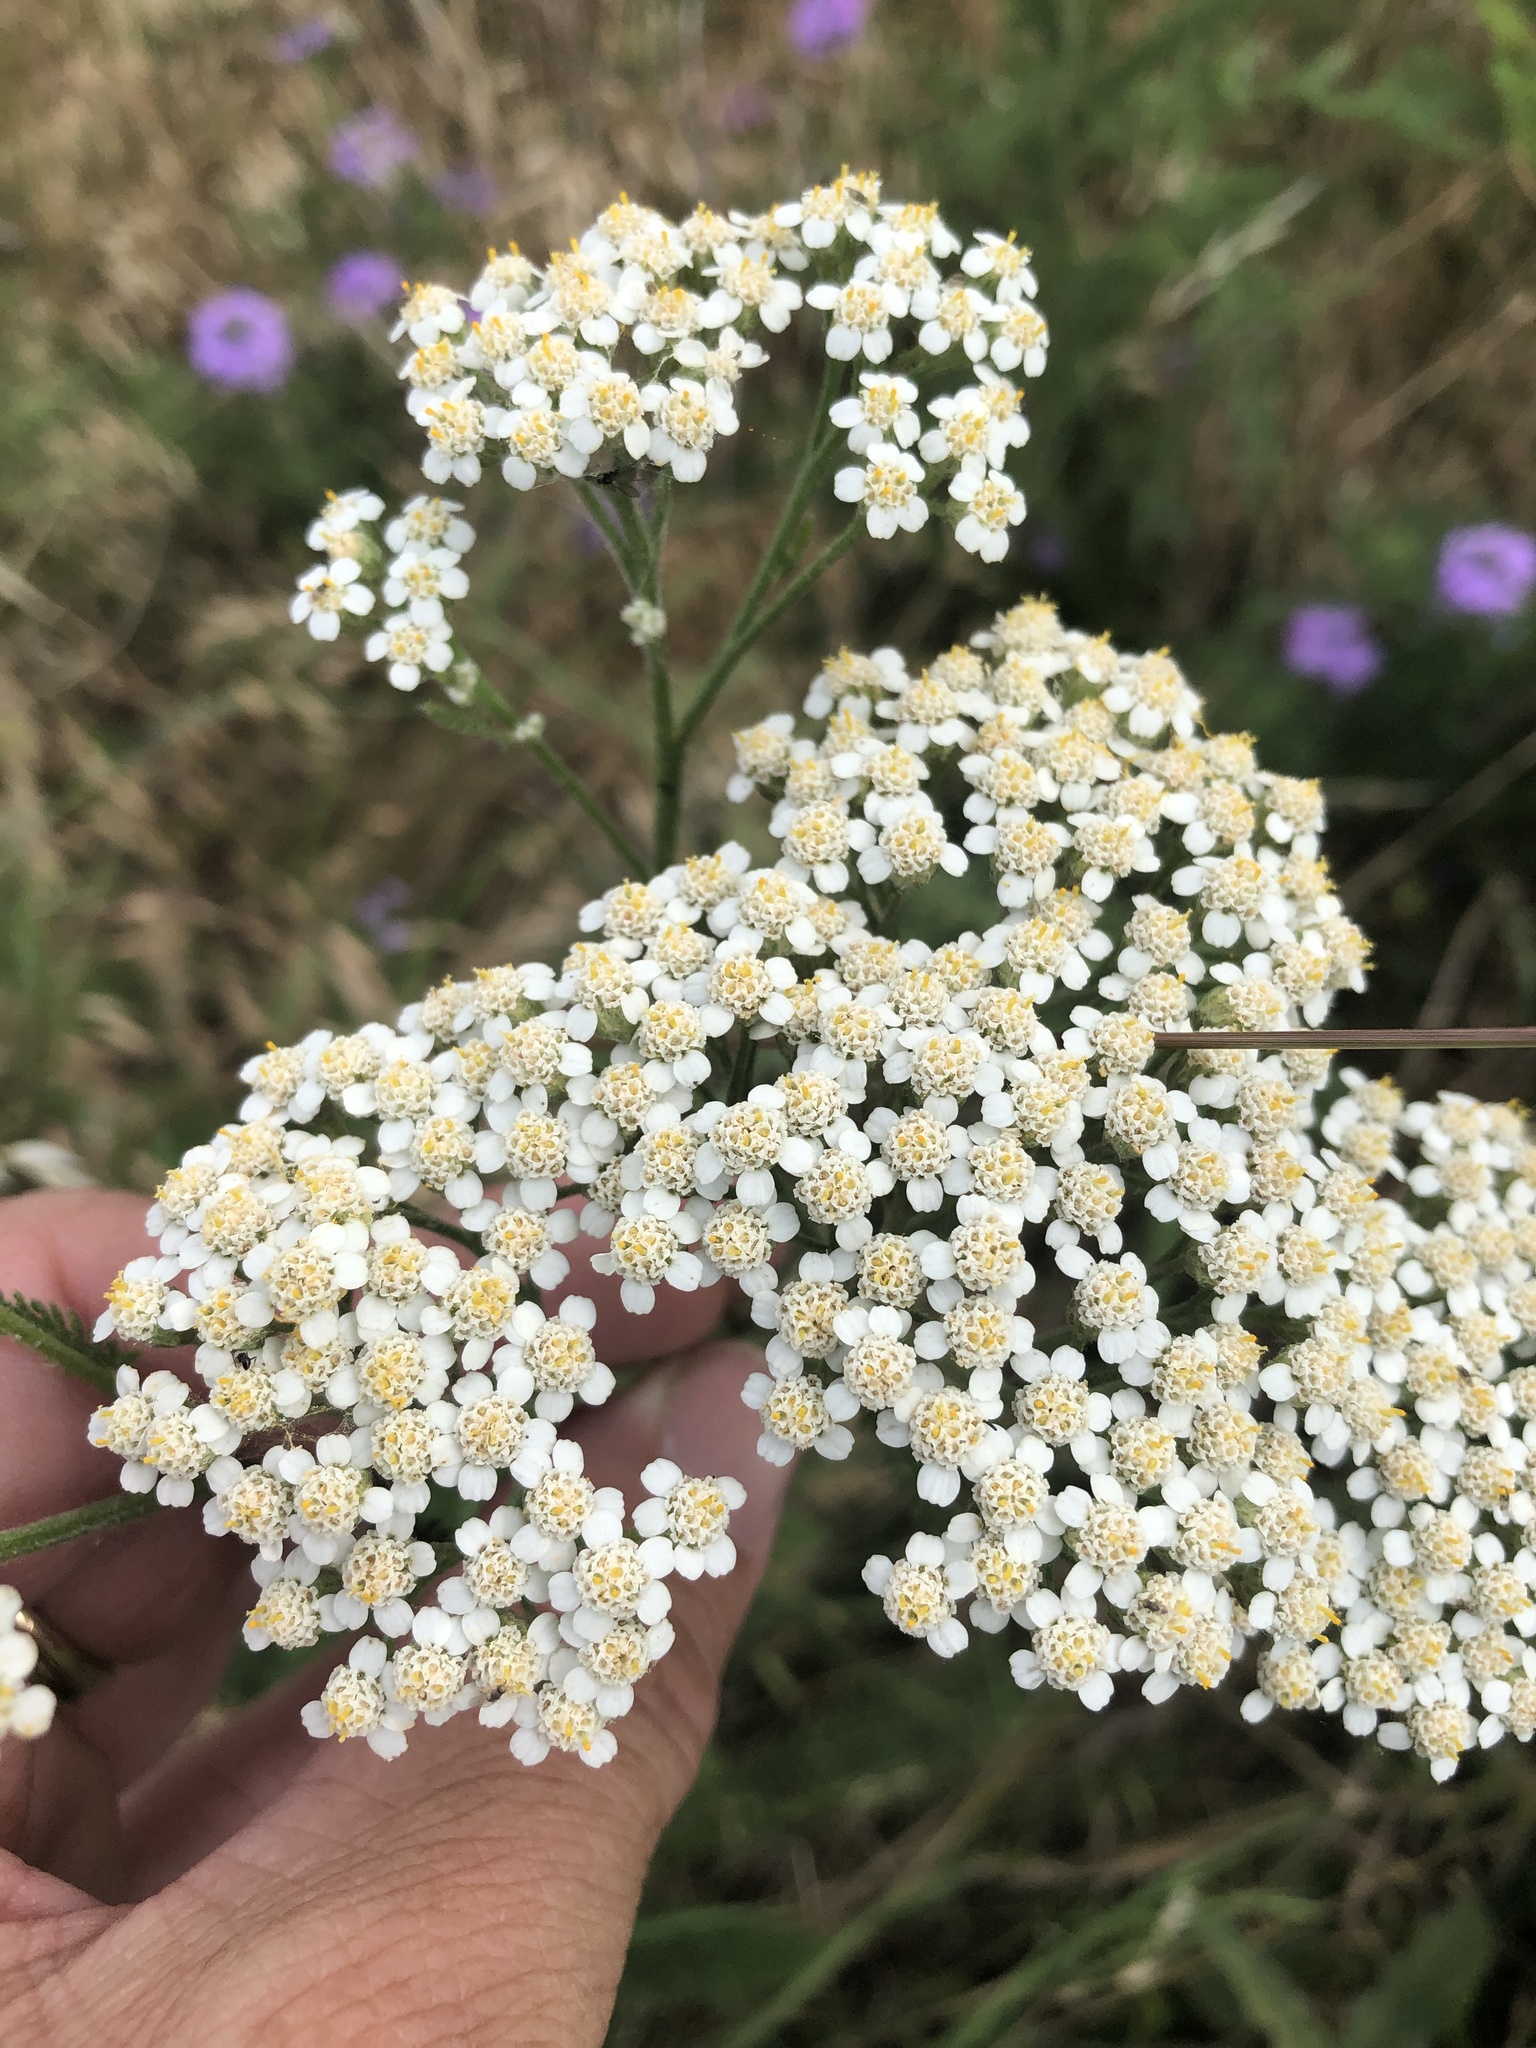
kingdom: Plantae
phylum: Tracheophyta
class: Magnoliopsida
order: Asterales
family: Asteraceae
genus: Achillea
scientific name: Achillea millefolium
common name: Yarrow
